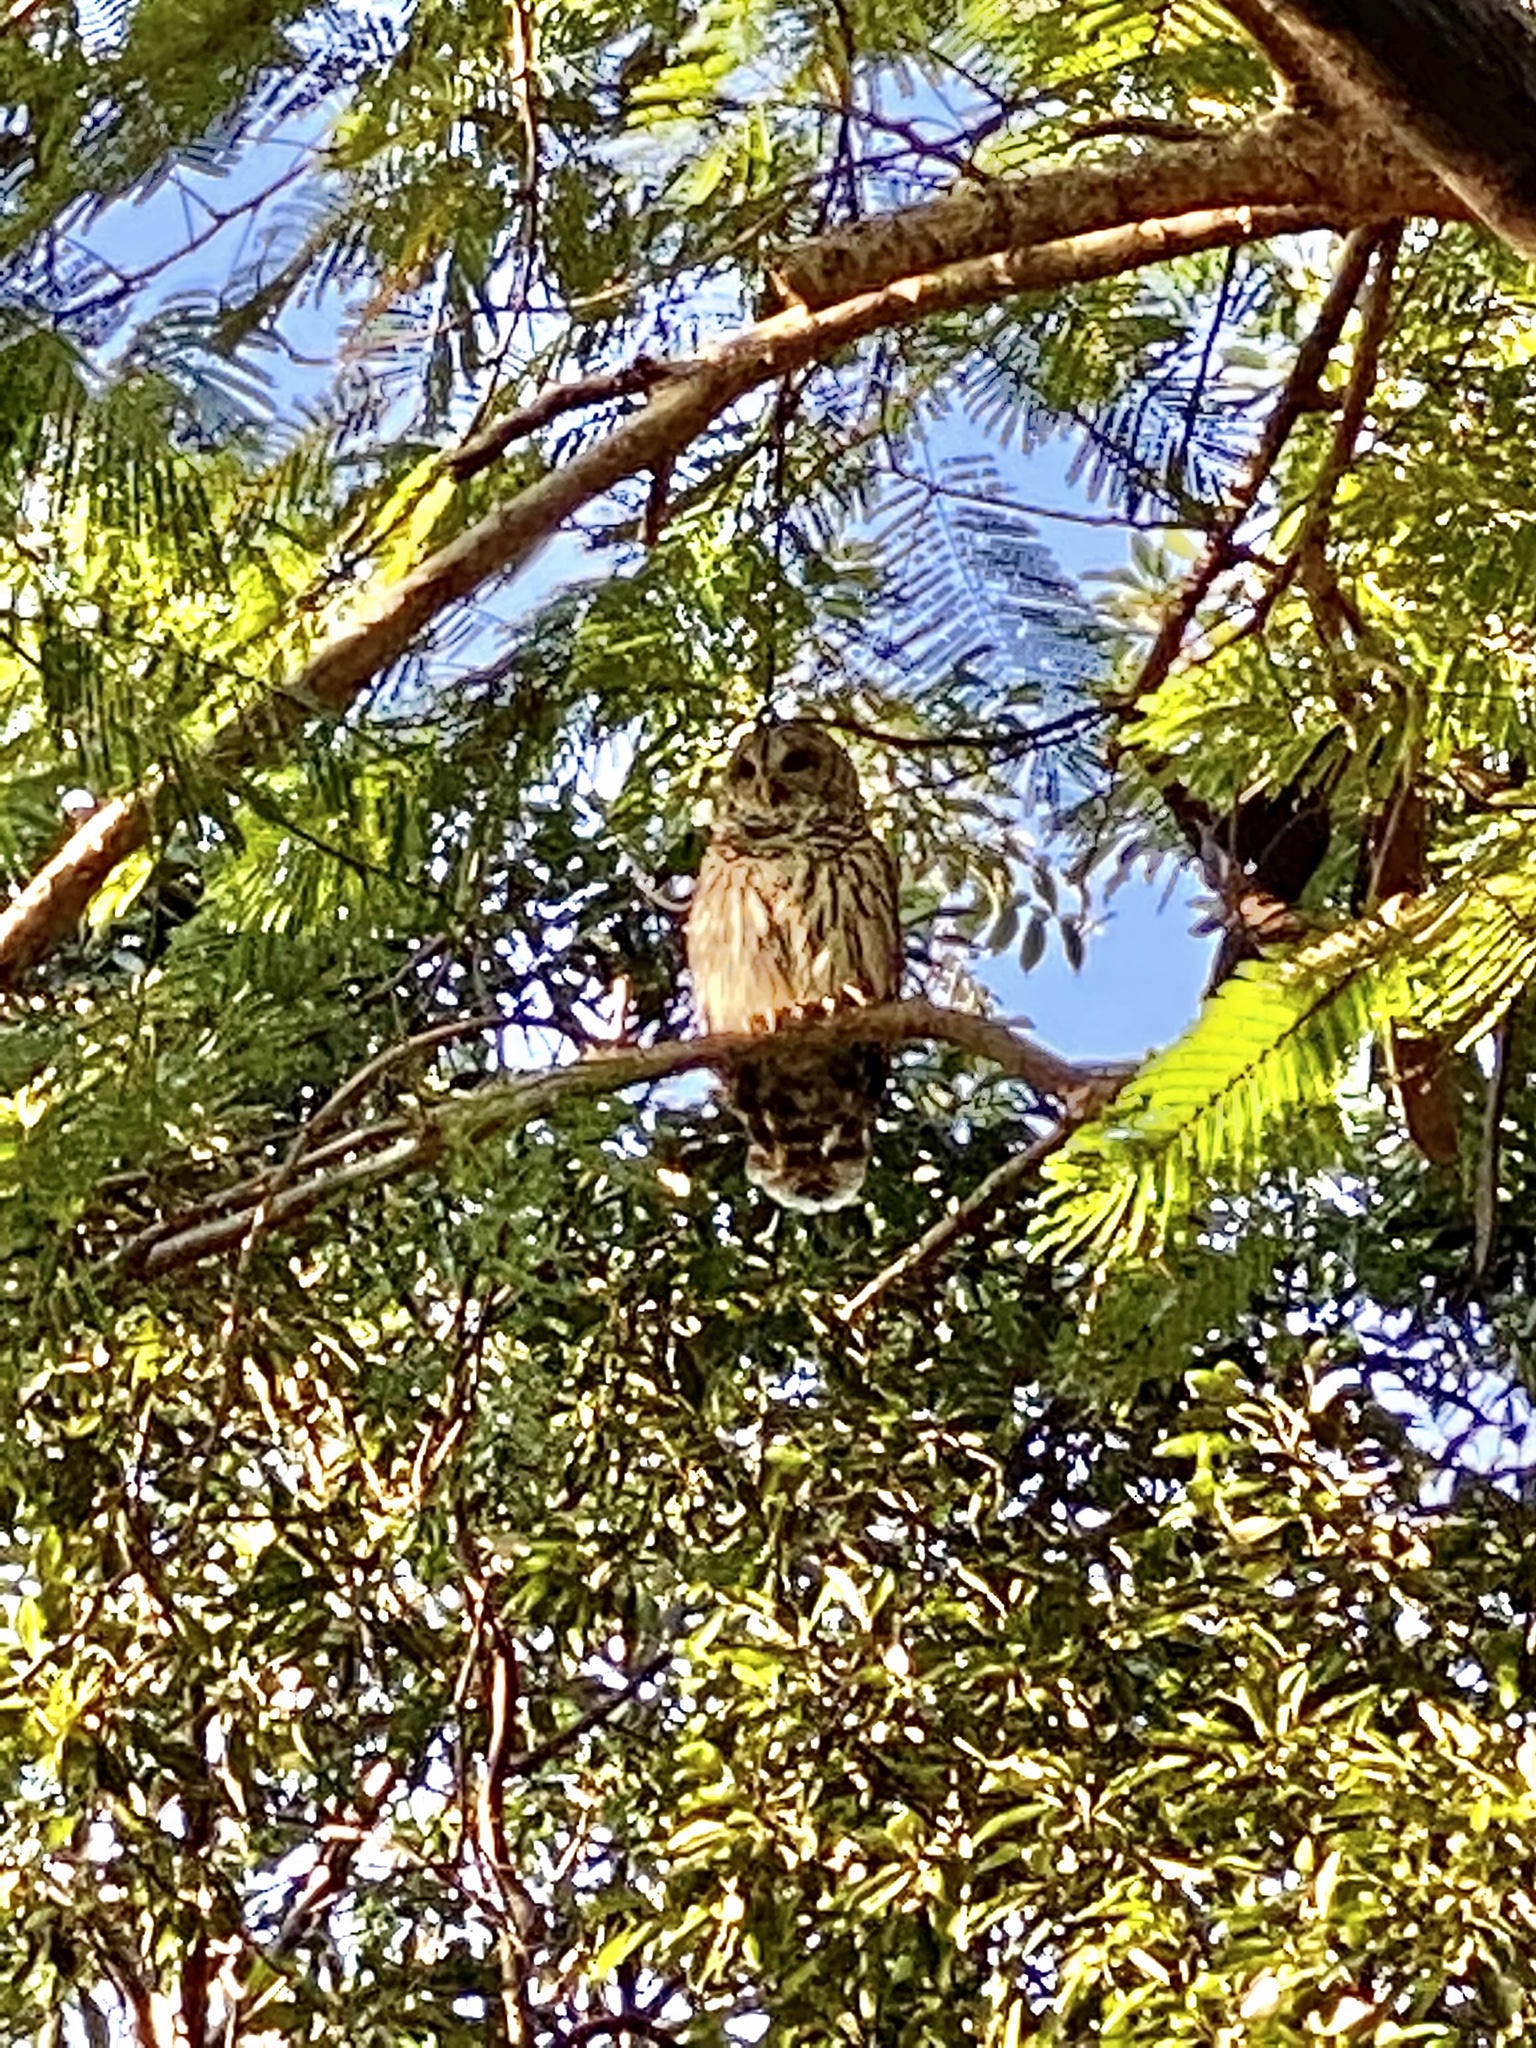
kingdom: Animalia
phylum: Chordata
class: Aves
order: Strigiformes
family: Strigidae
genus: Strix
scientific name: Strix varia
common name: Barred owl
